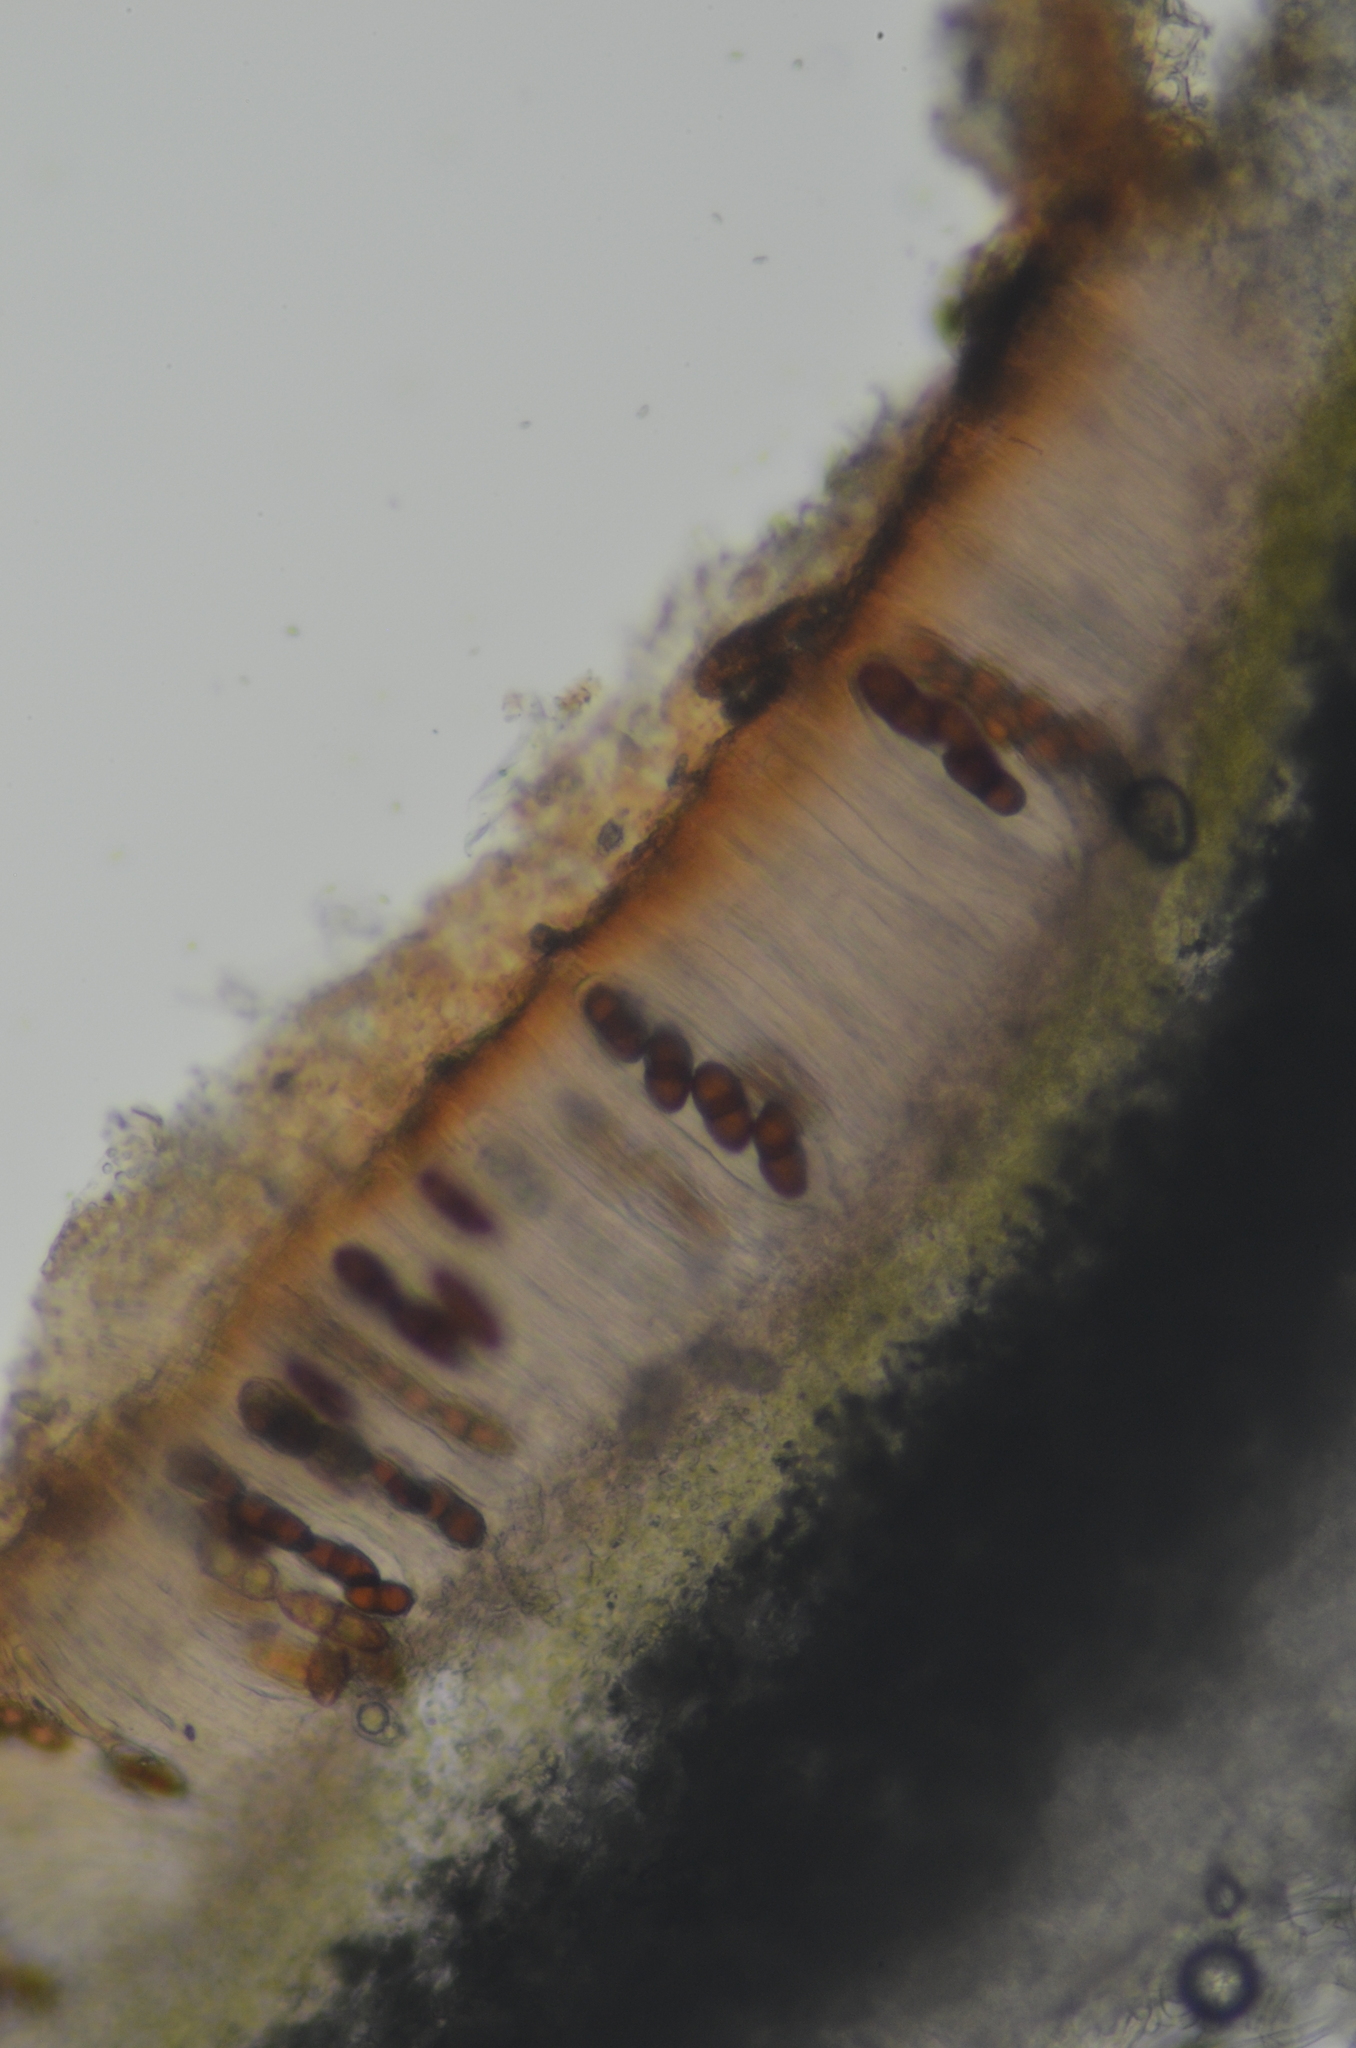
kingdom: Fungi
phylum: Ascomycota
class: Lecanoromycetes
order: Peltigerales
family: Peltigeraceae
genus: Solorina
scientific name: Solorina saccata
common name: Common chocolate chip lichen
